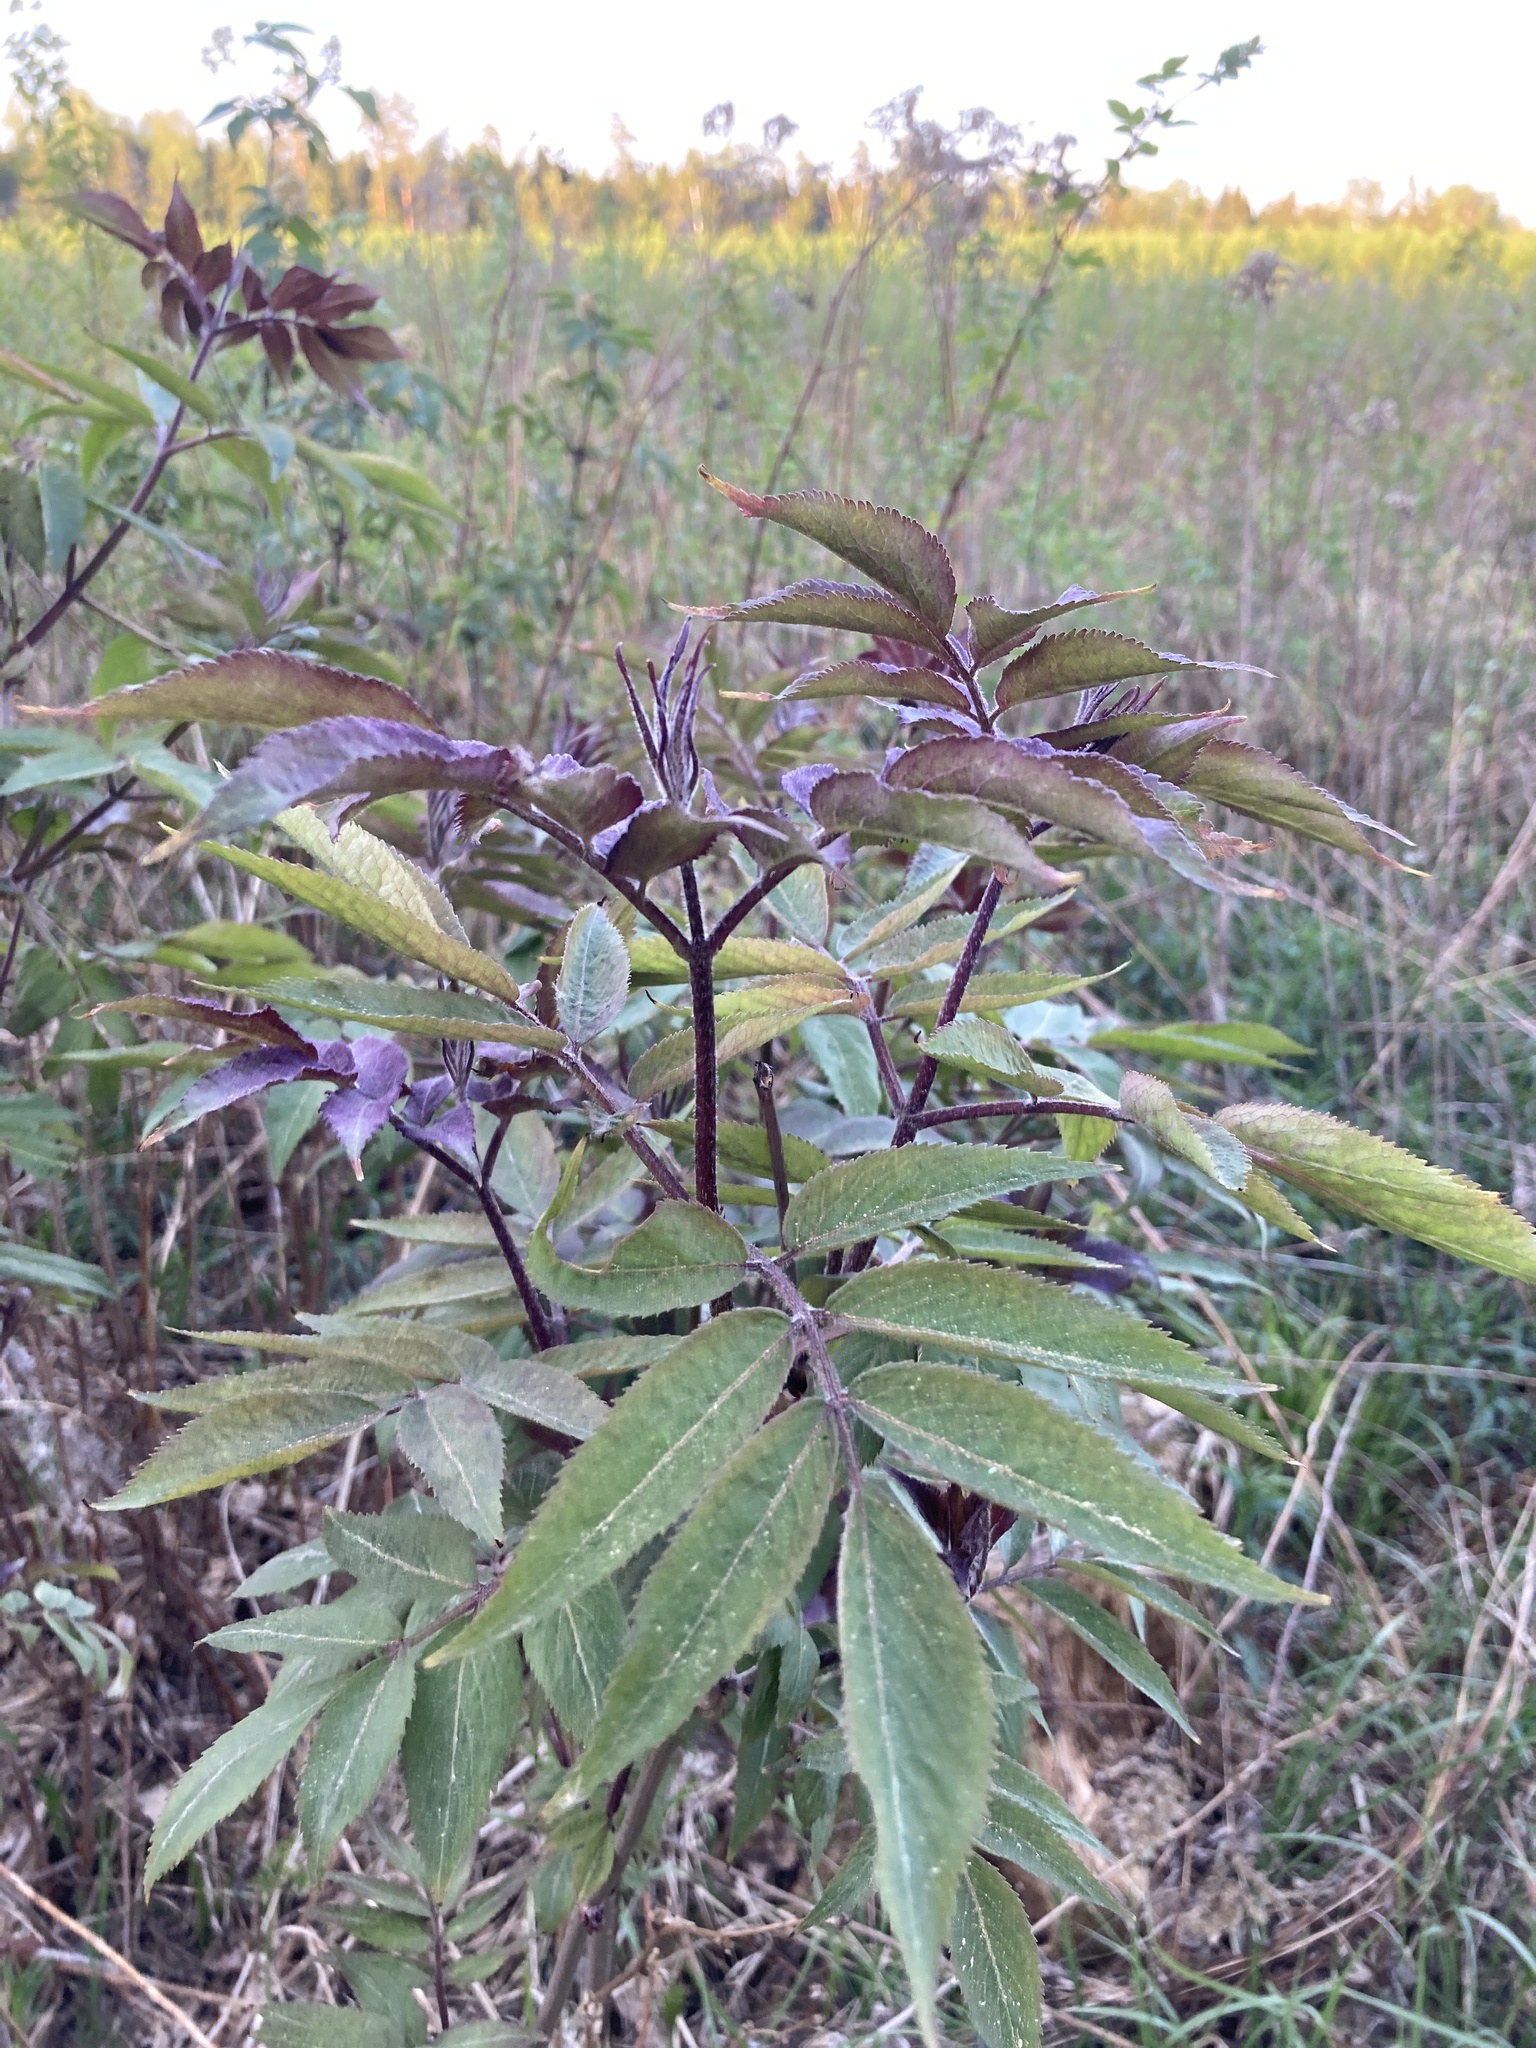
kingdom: Plantae
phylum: Tracheophyta
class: Magnoliopsida
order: Dipsacales
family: Viburnaceae
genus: Sambucus
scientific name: Sambucus racemosa
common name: Red-berried elder
